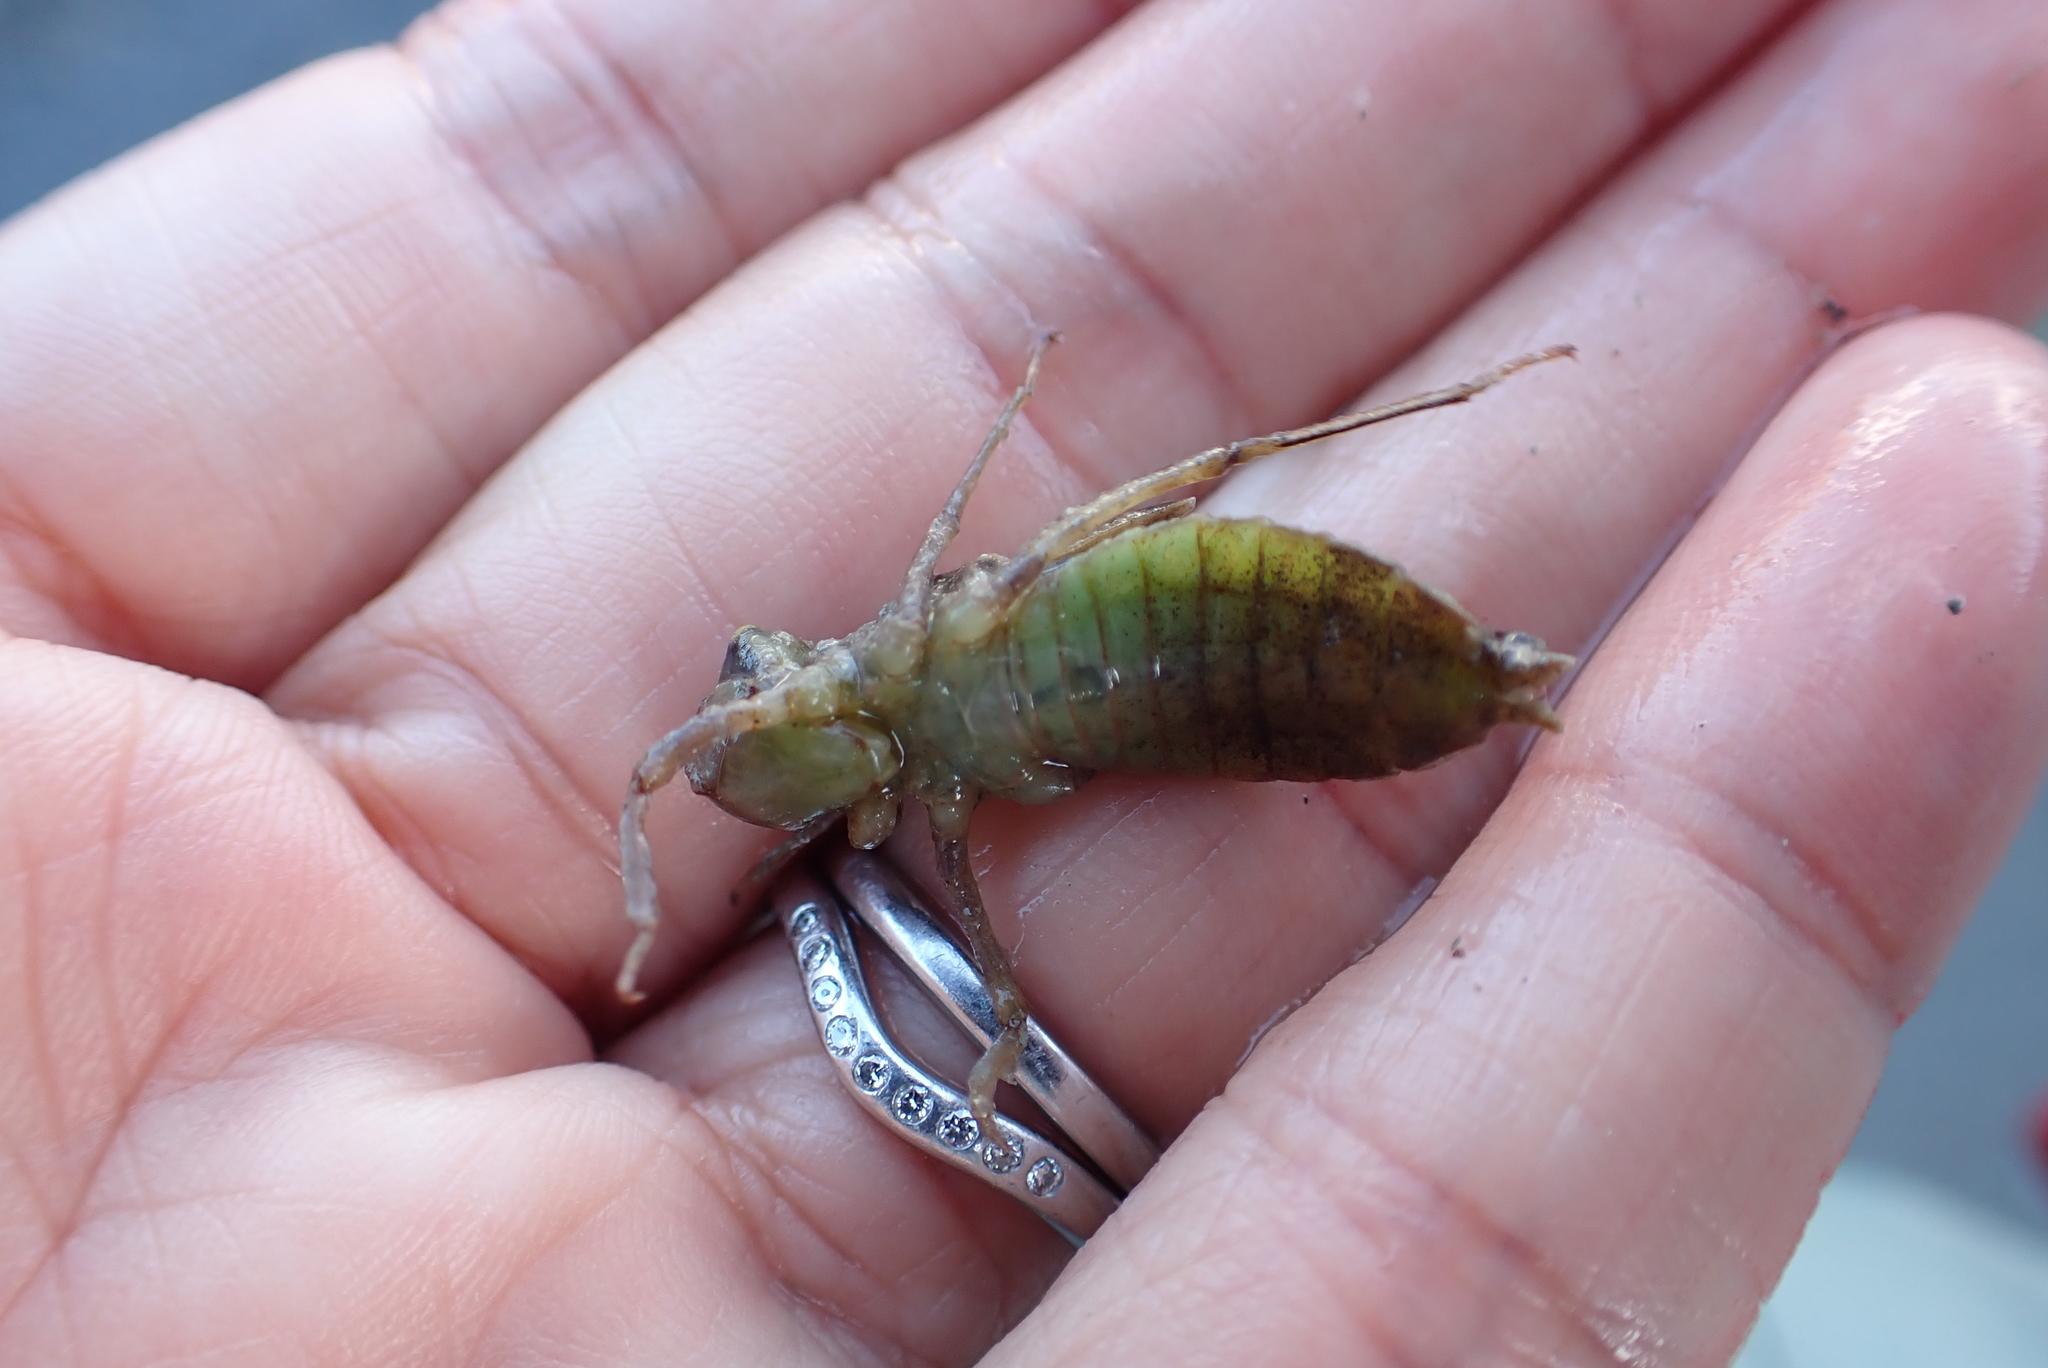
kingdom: Animalia
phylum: Arthropoda
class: Insecta
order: Odonata
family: Corduliidae
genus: Procordulia
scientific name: Procordulia smithii
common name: Ranger dragonfly
